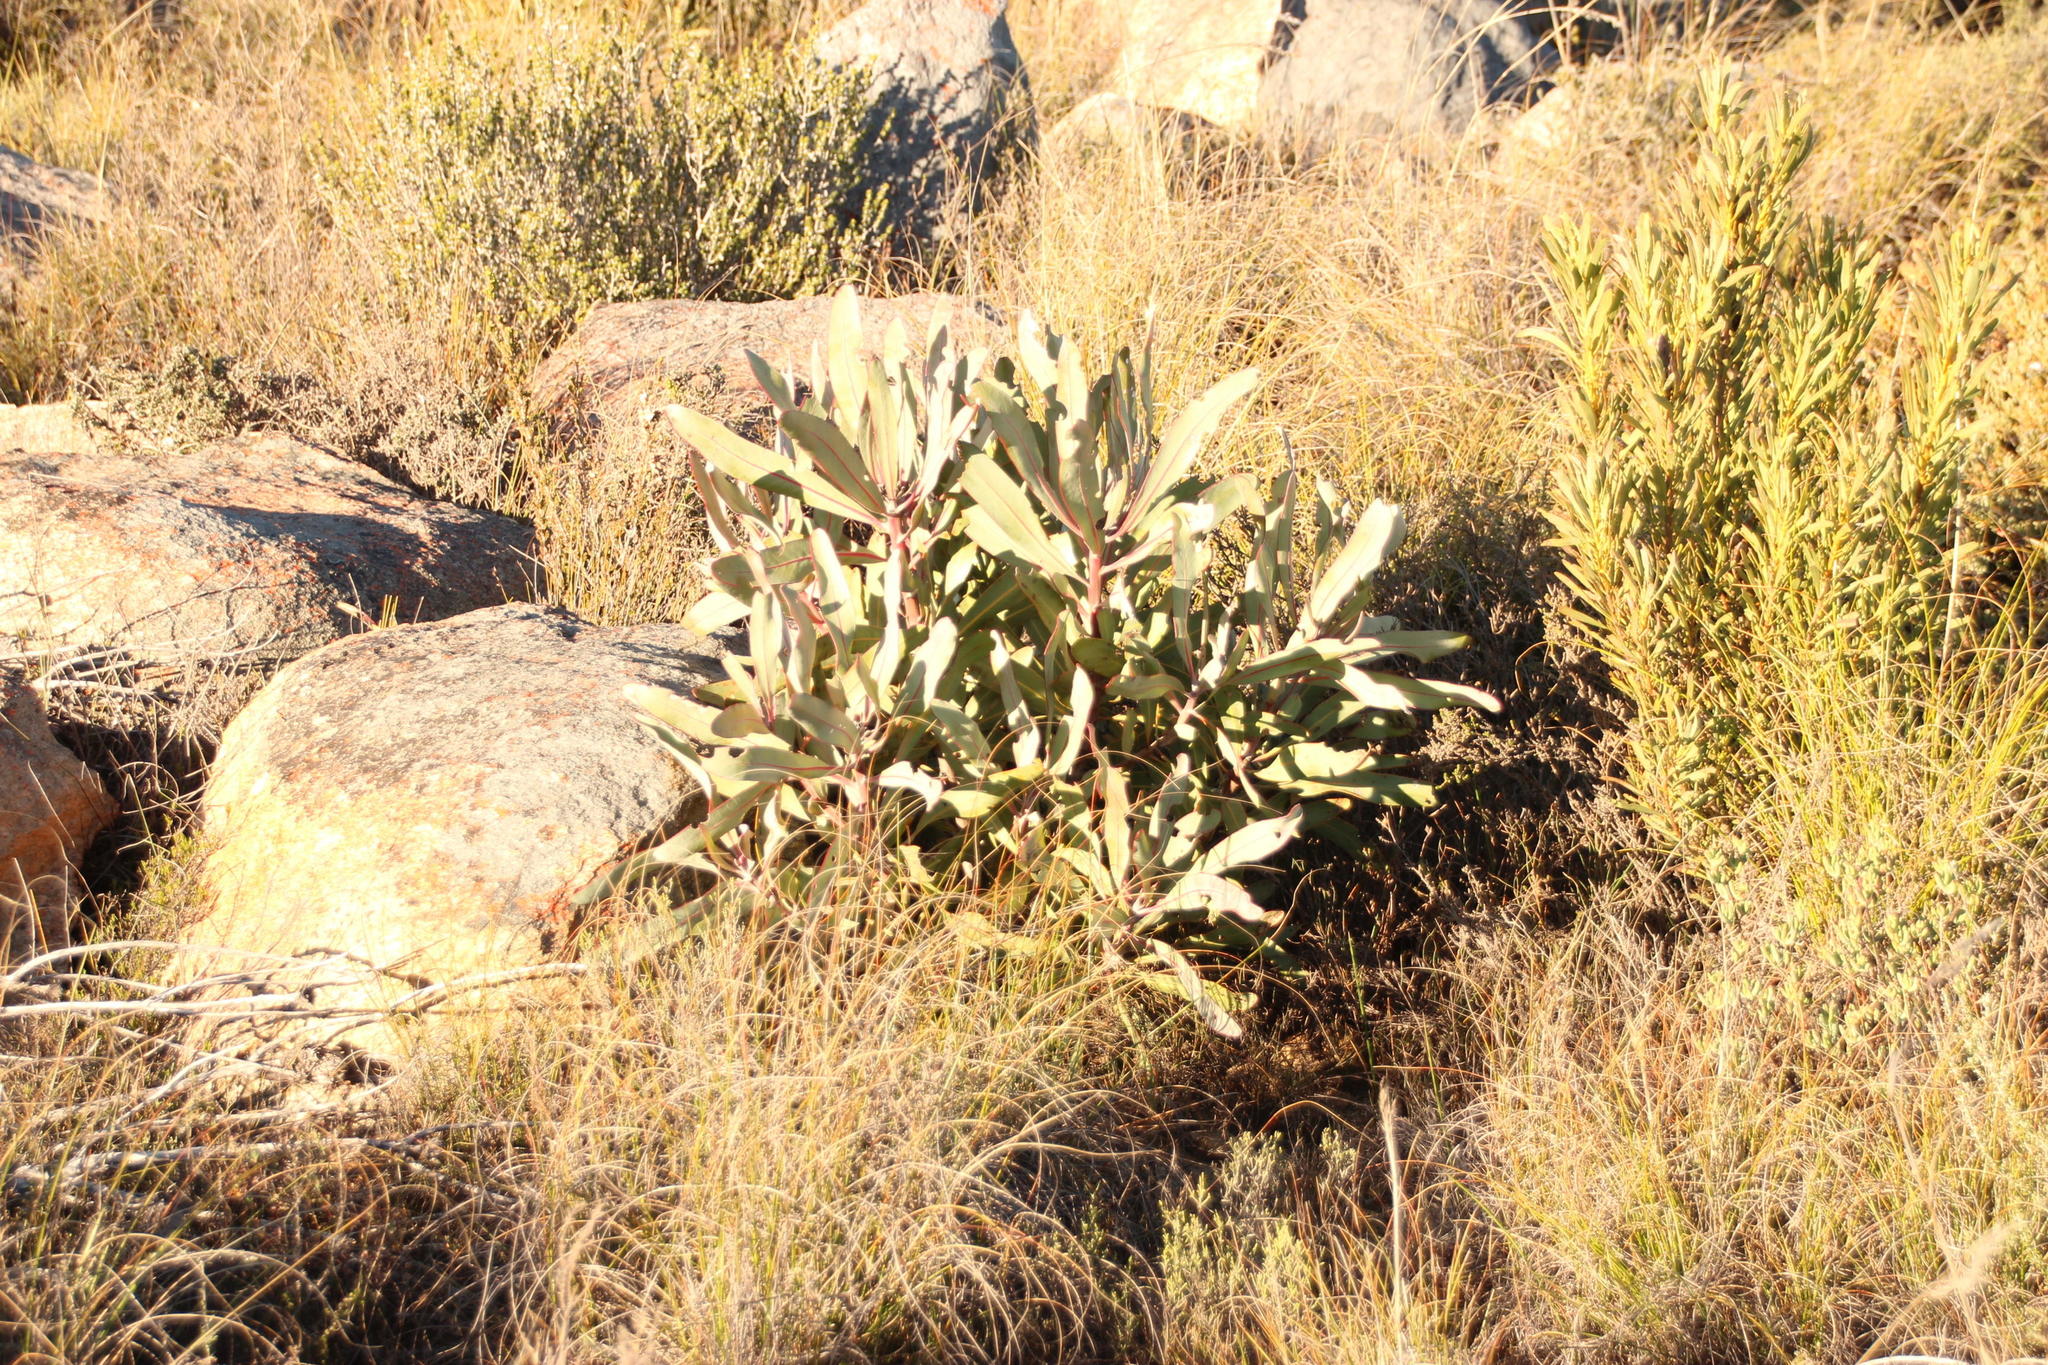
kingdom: Plantae
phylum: Tracheophyta
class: Magnoliopsida
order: Proteales
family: Proteaceae
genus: Protea
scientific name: Protea lorifolia
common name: Strap-leaved protea
